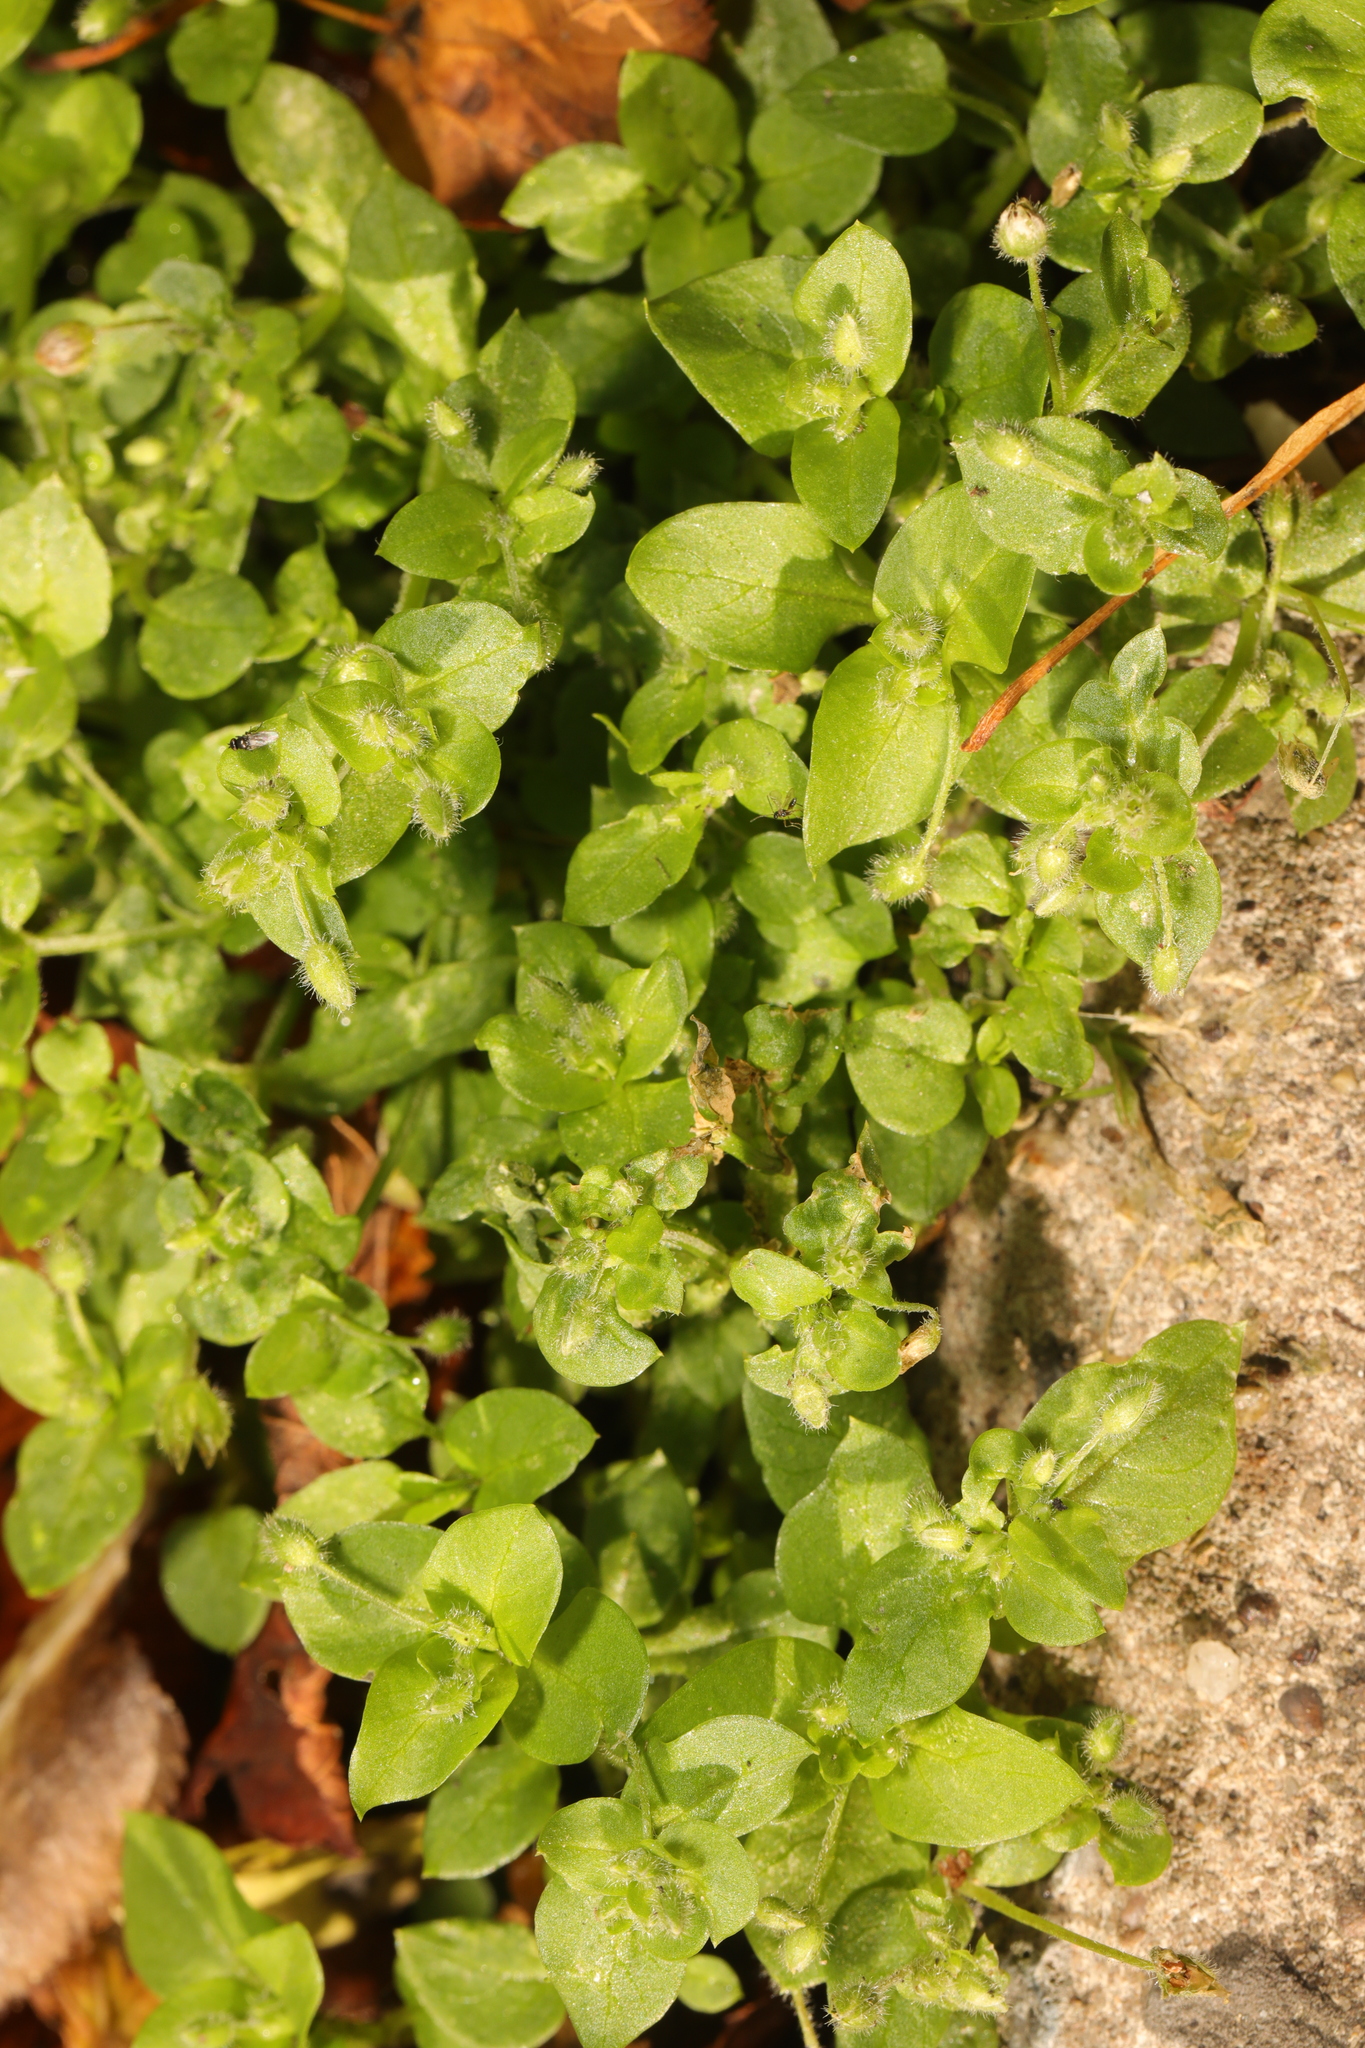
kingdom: Plantae
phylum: Tracheophyta
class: Magnoliopsida
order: Caryophyllales
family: Caryophyllaceae
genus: Stellaria
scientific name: Stellaria media
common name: Common chickweed
